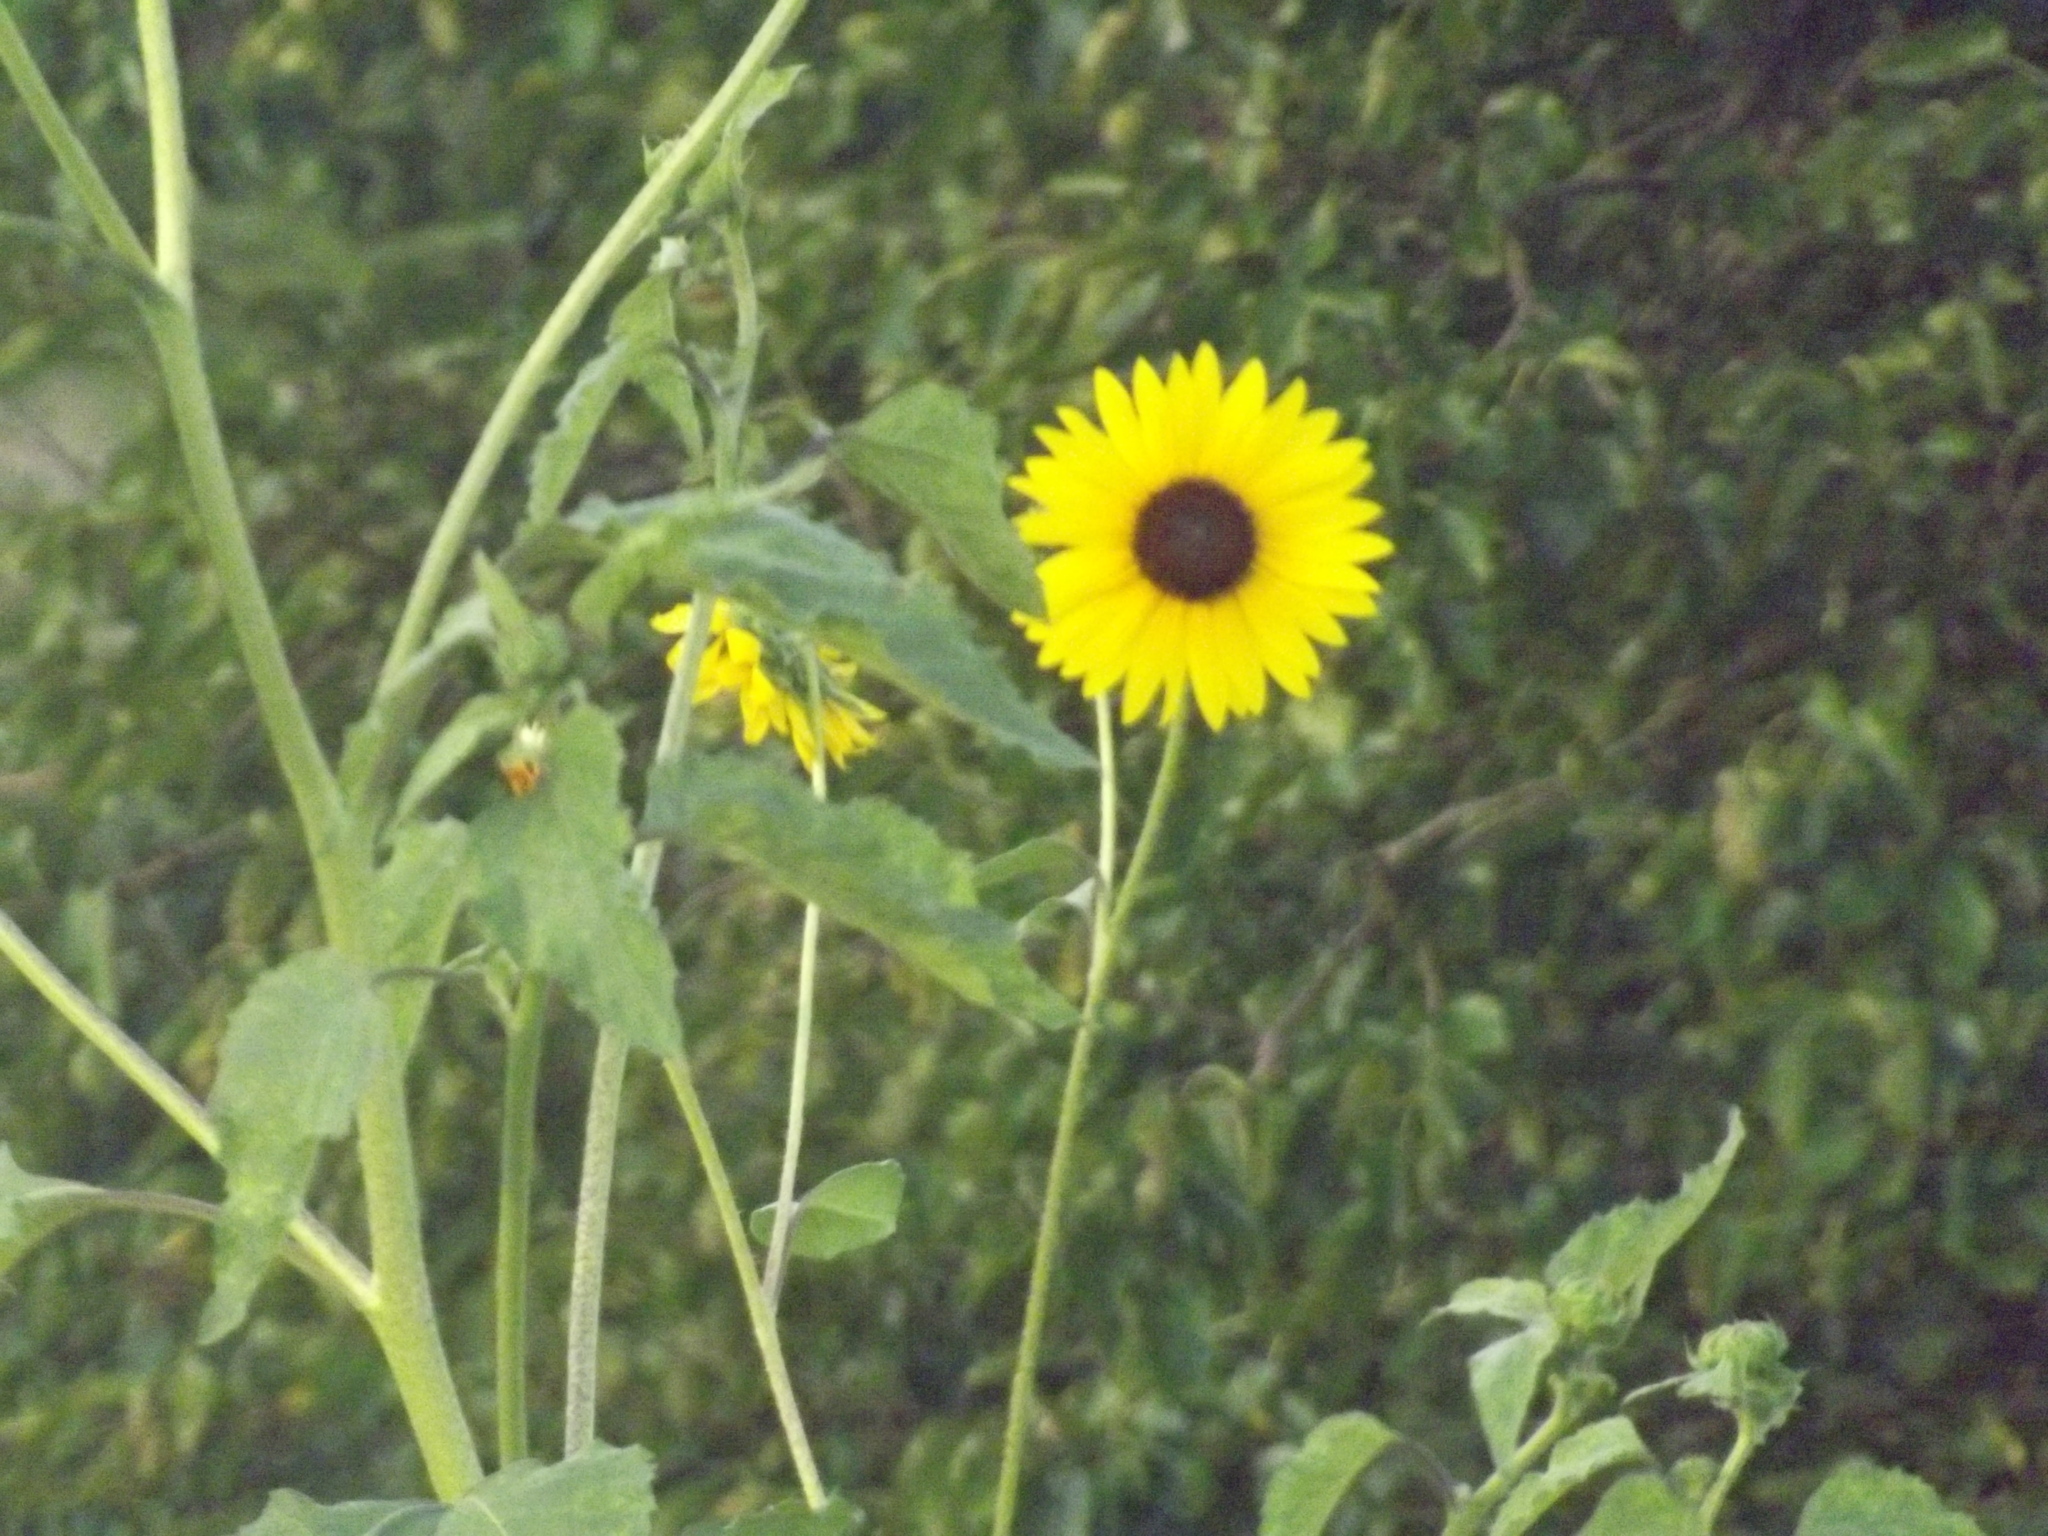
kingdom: Plantae
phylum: Tracheophyta
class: Magnoliopsida
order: Asterales
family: Asteraceae
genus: Helianthus
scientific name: Helianthus annuus
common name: Sunflower
